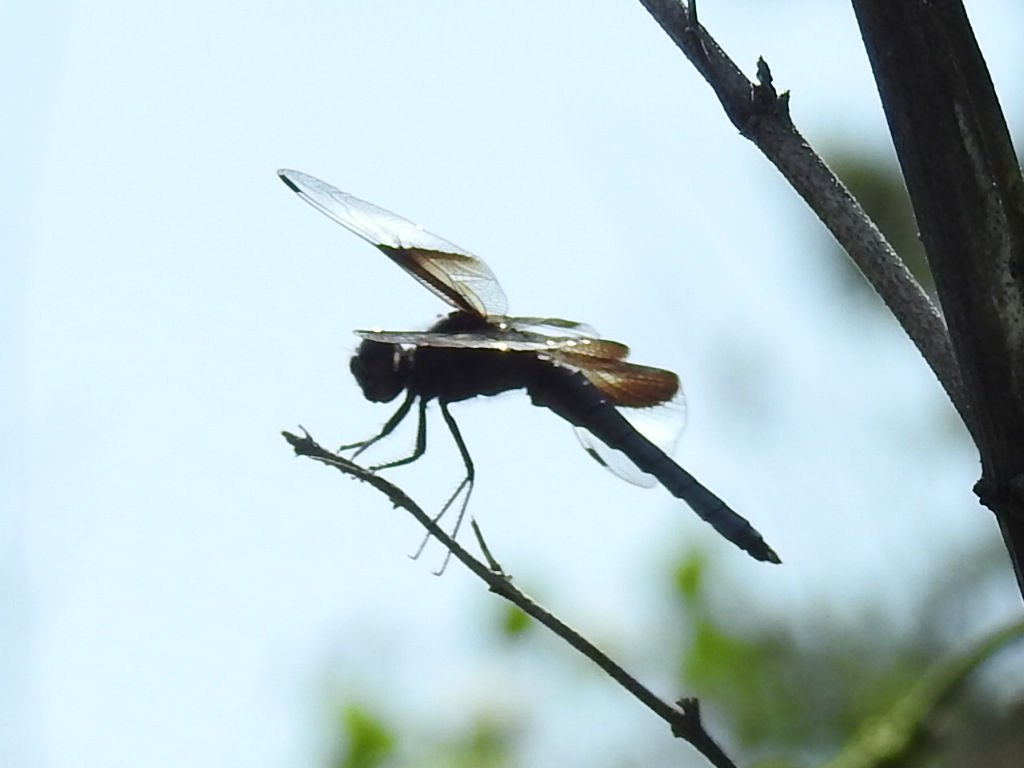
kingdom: Animalia
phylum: Arthropoda
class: Insecta
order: Odonata
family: Libellulidae
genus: Libellula
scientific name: Libellula luctuosa
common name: Widow skimmer
